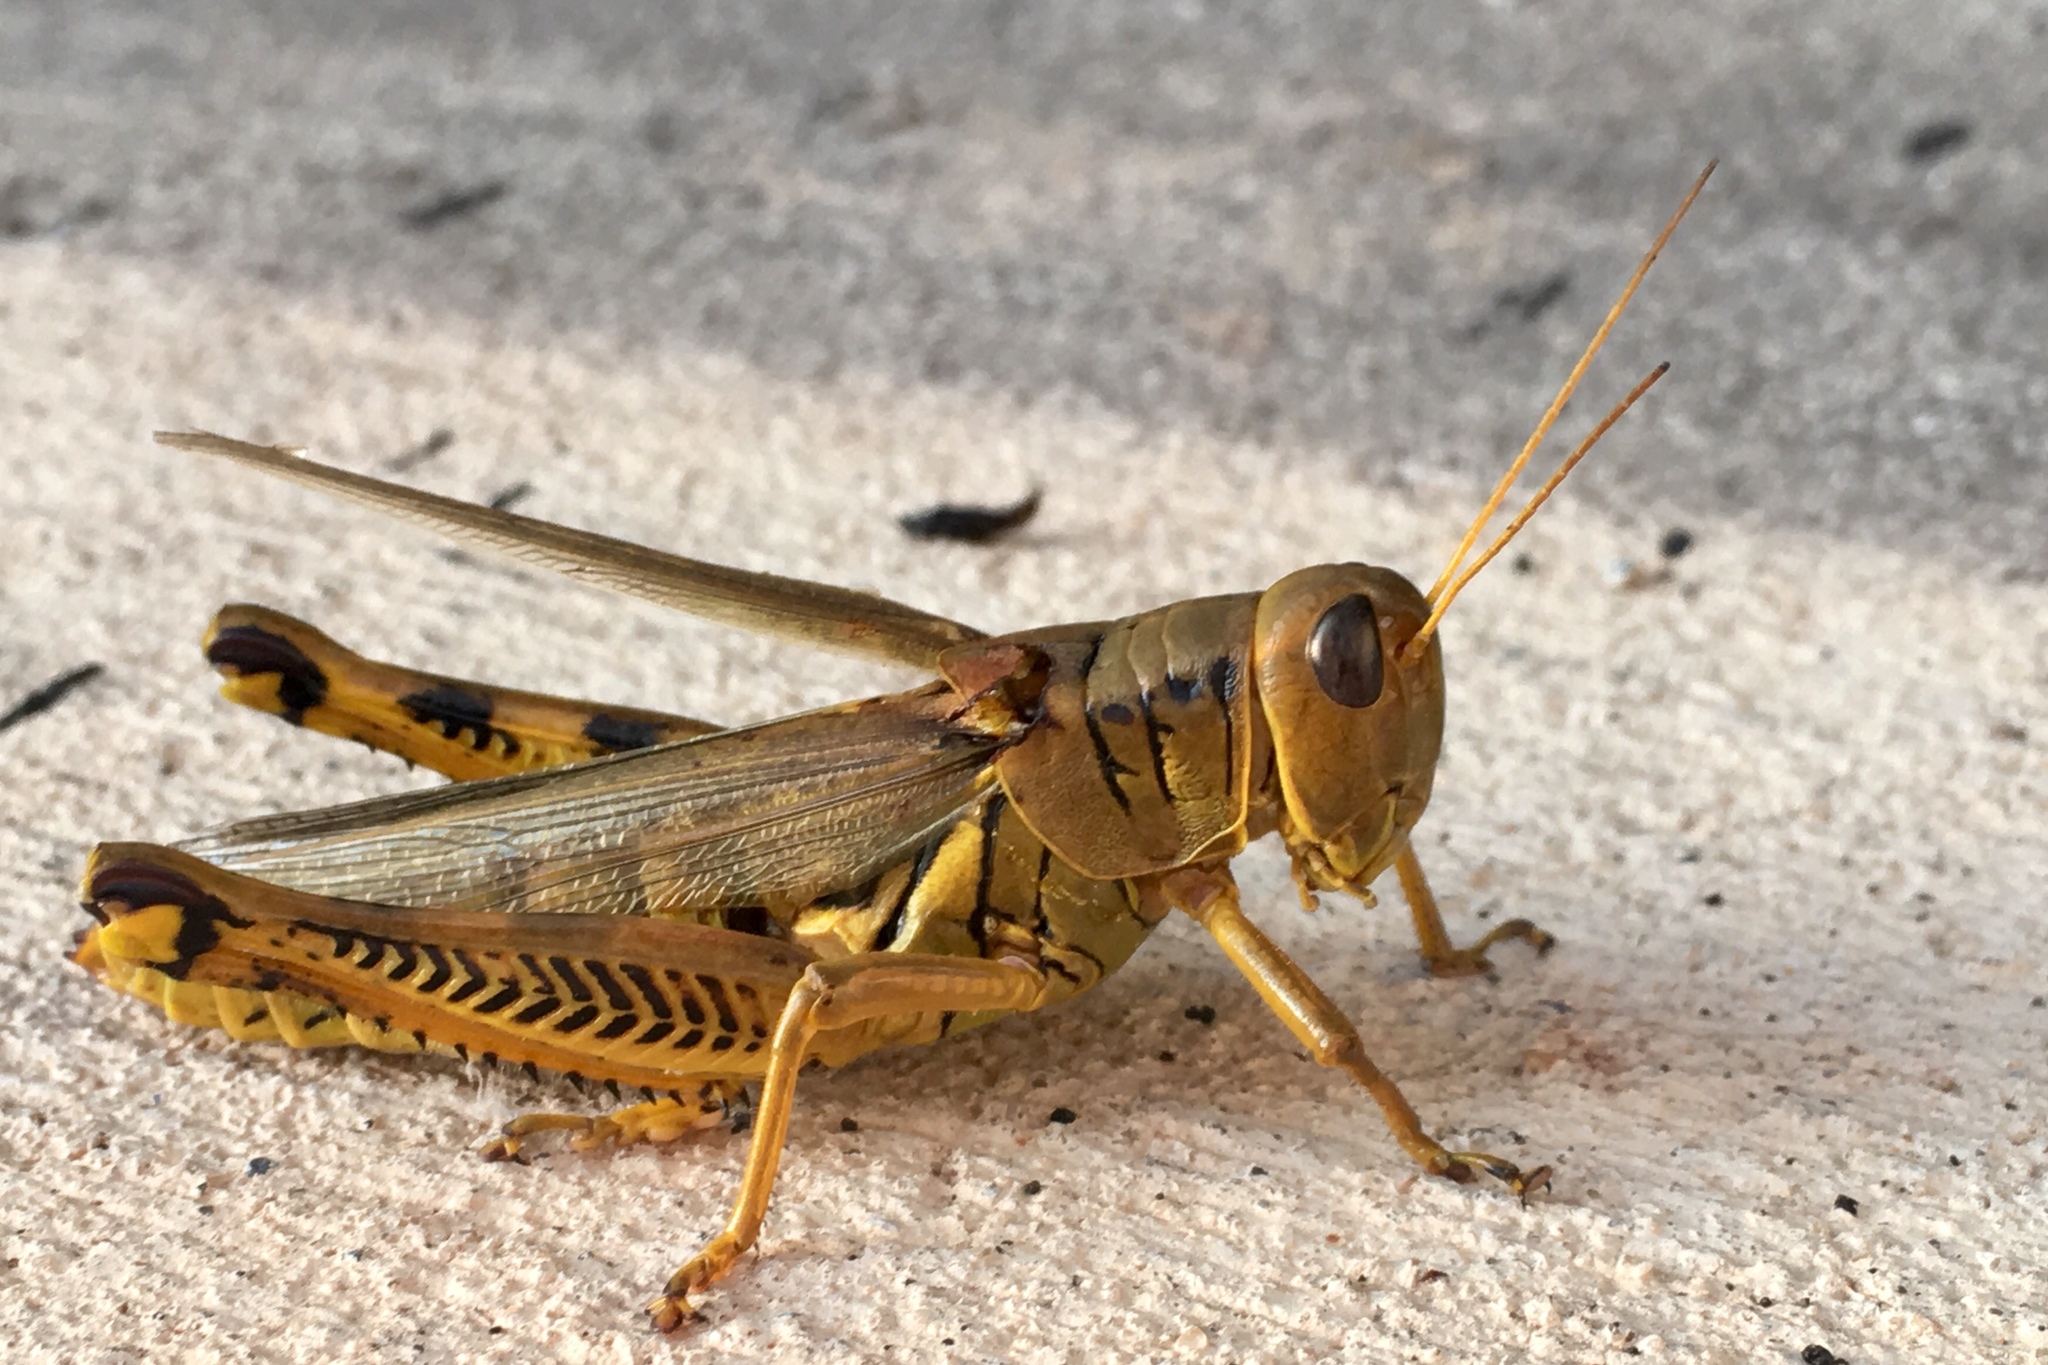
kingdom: Animalia
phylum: Arthropoda
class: Insecta
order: Orthoptera
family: Acrididae
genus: Melanoplus
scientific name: Melanoplus differentialis
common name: Differential grasshopper
